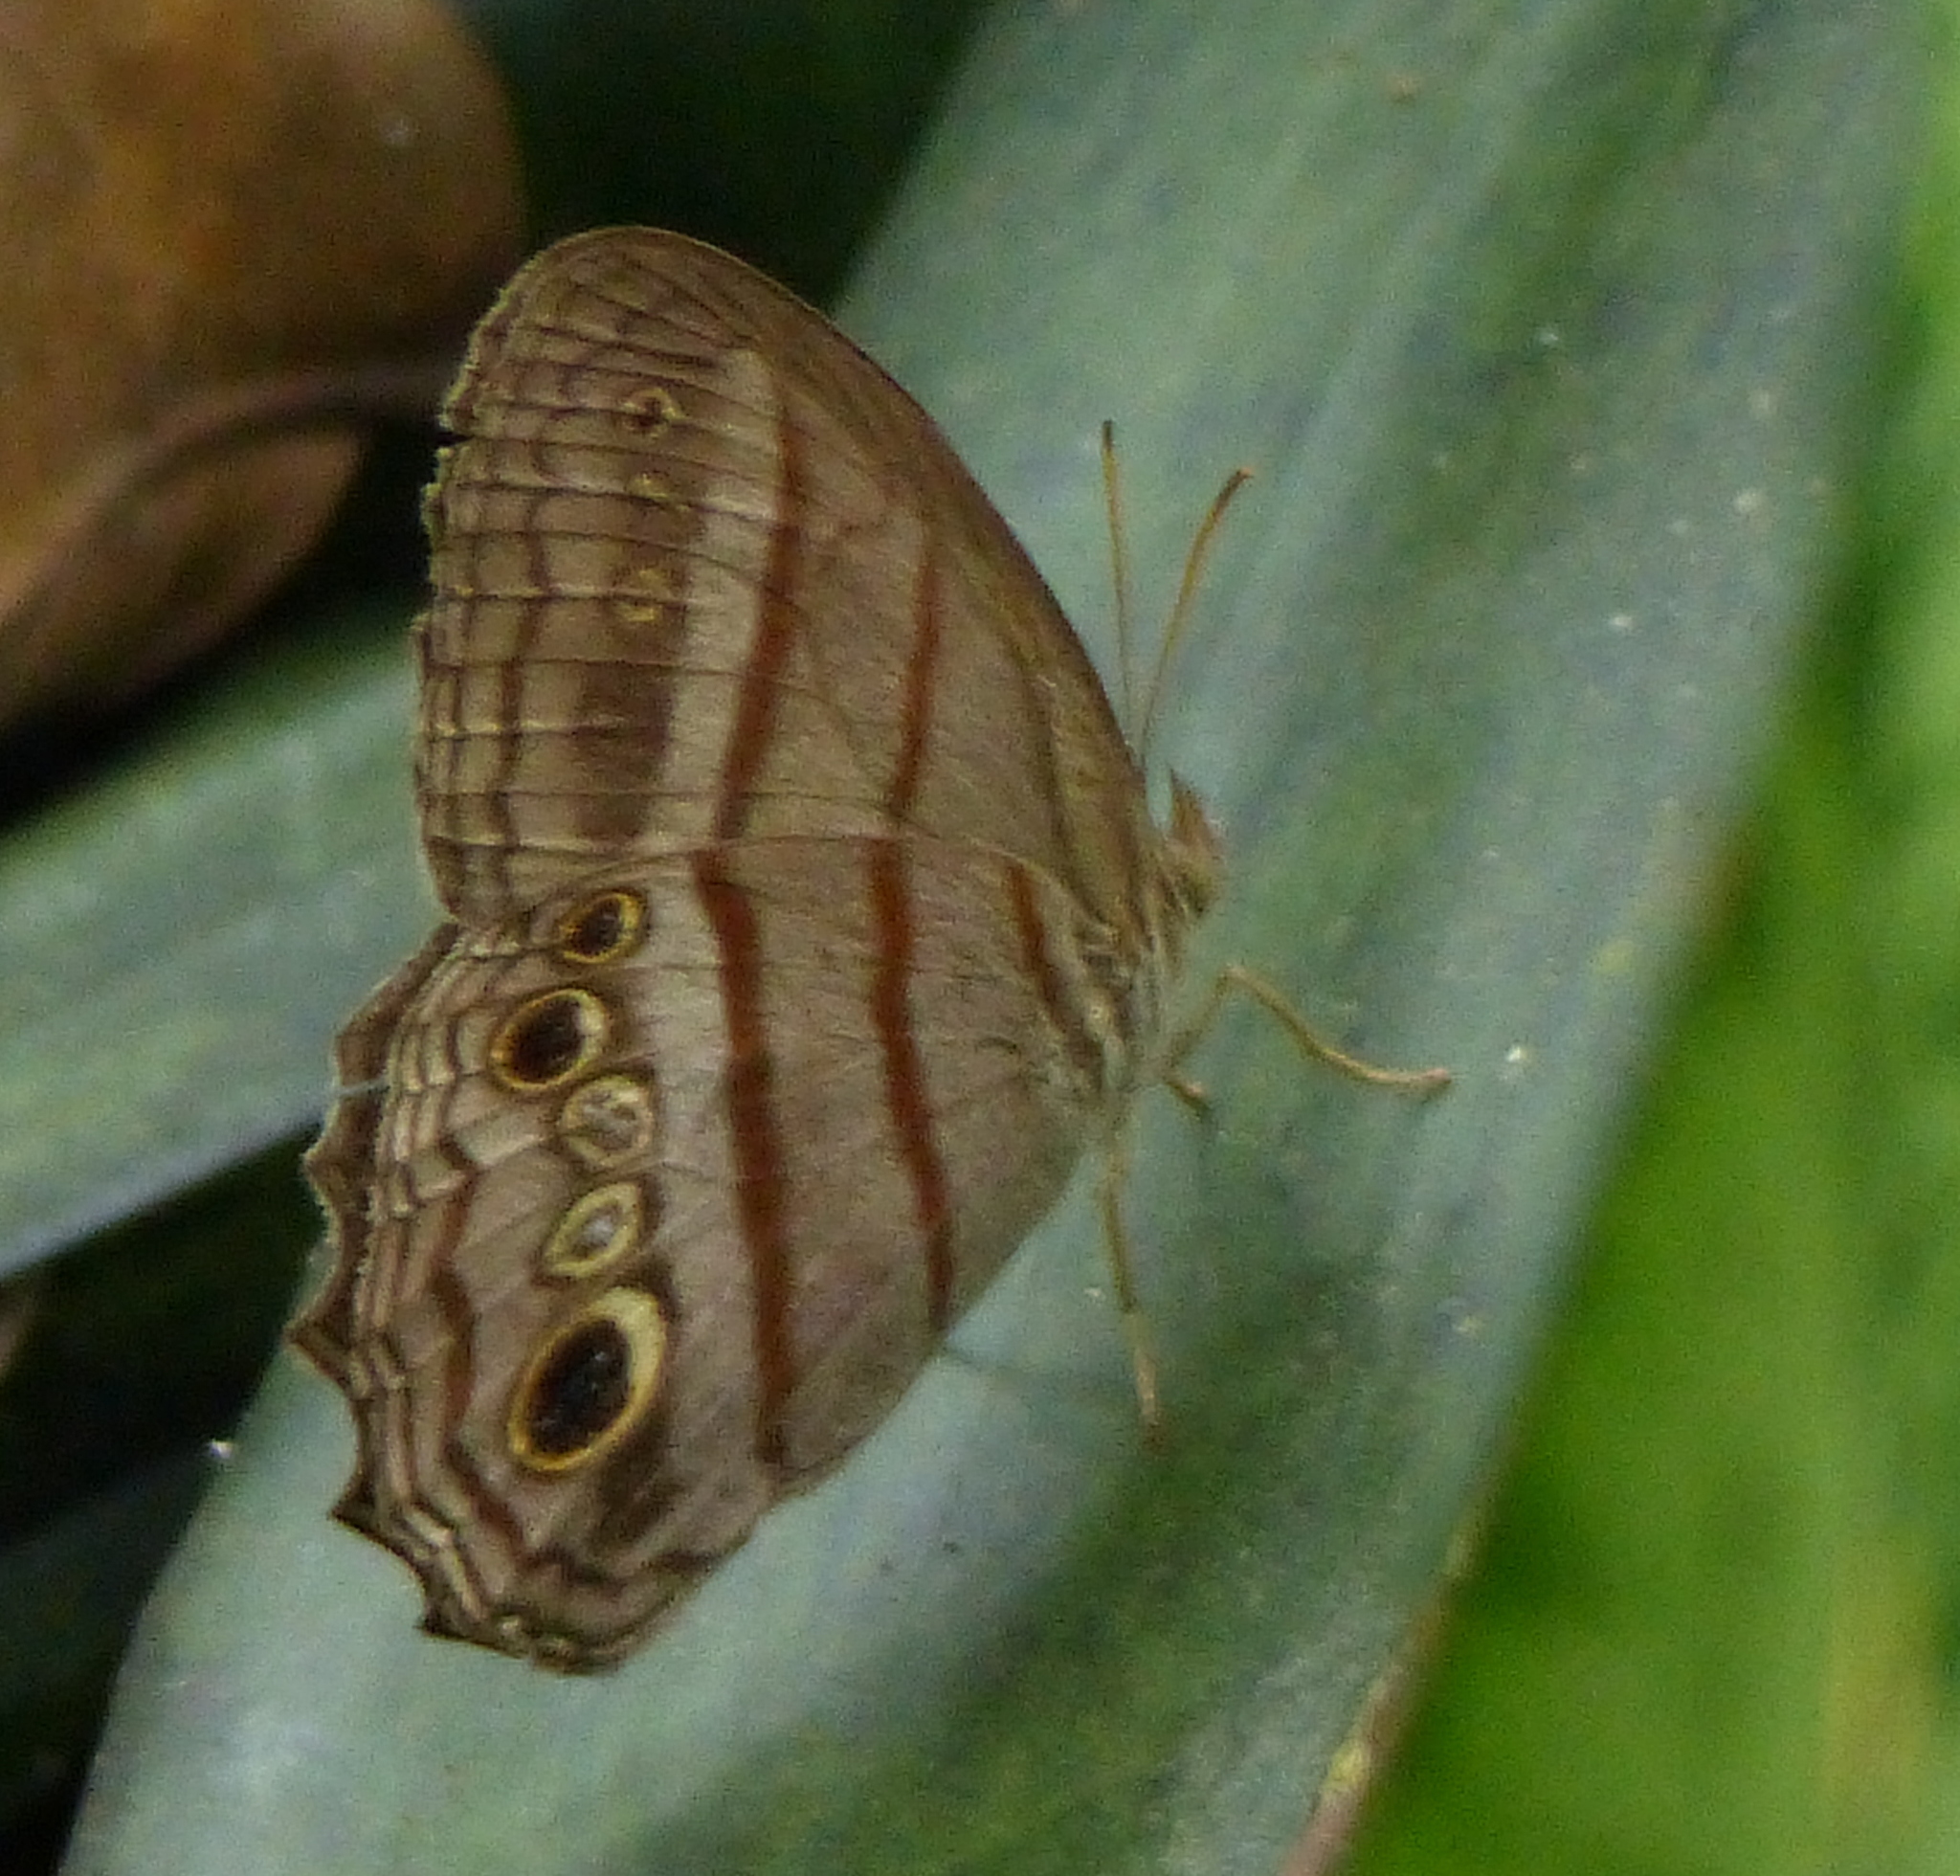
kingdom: Animalia
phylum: Arthropoda
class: Insecta
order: Lepidoptera
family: Nymphalidae
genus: Magneuptychia
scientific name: Magneuptychia libye
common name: Blue-gray satyr
